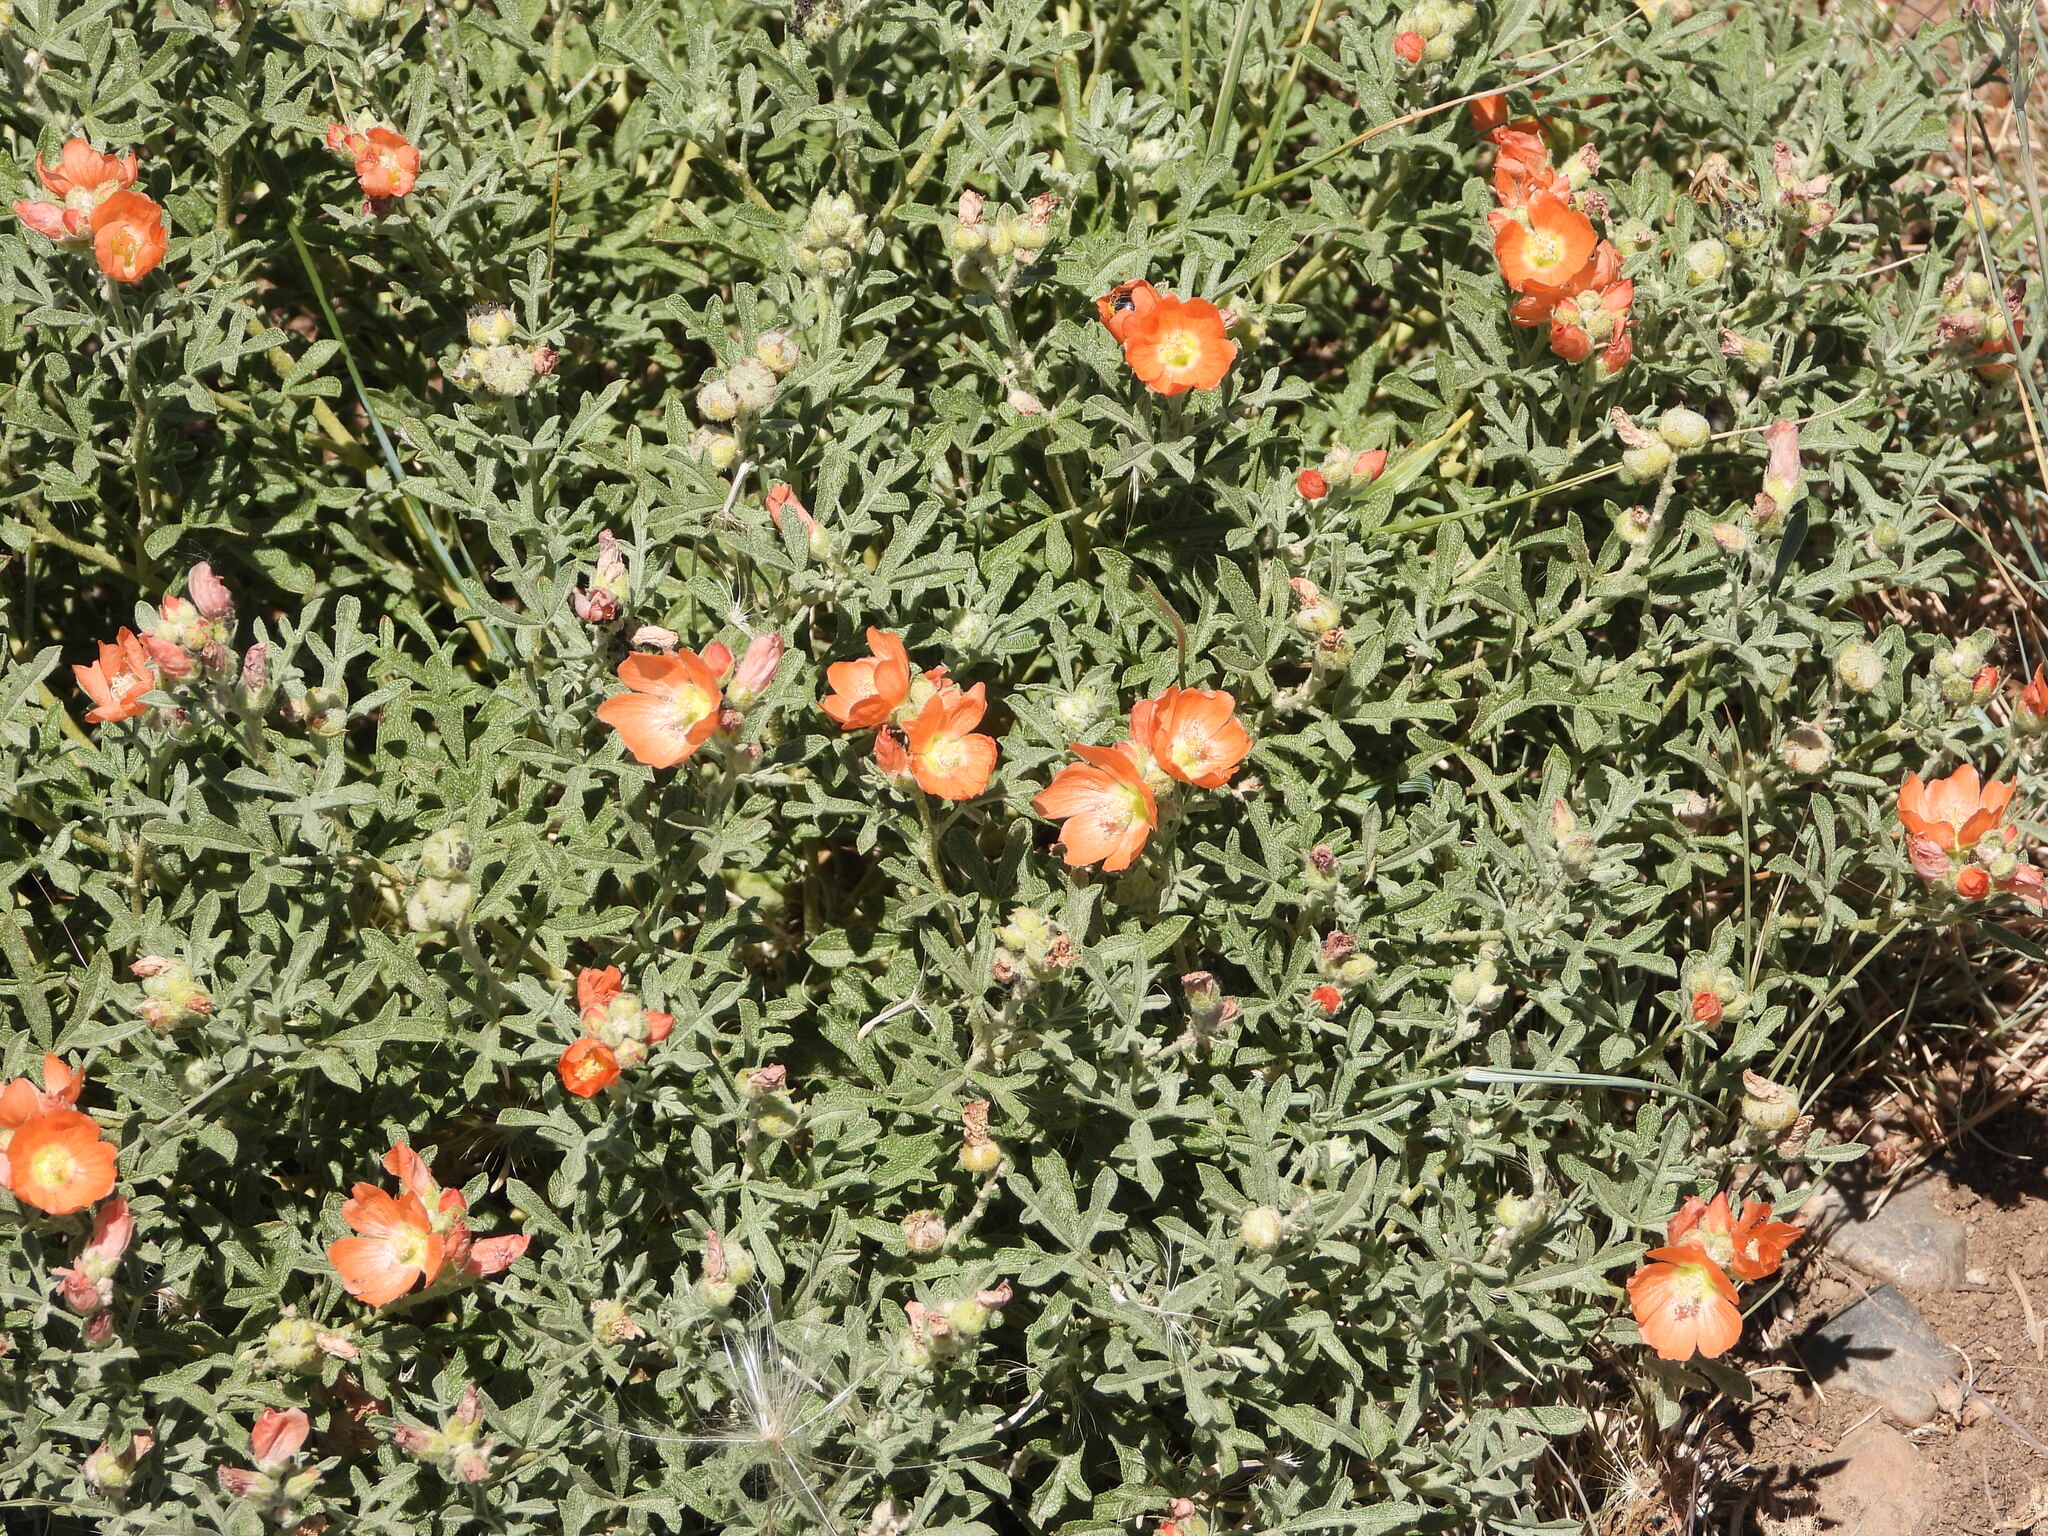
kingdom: Plantae
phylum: Tracheophyta
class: Magnoliopsida
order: Malvales
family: Malvaceae
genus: Sphaeralcea
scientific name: Sphaeralcea coccinea
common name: Moss-rose
